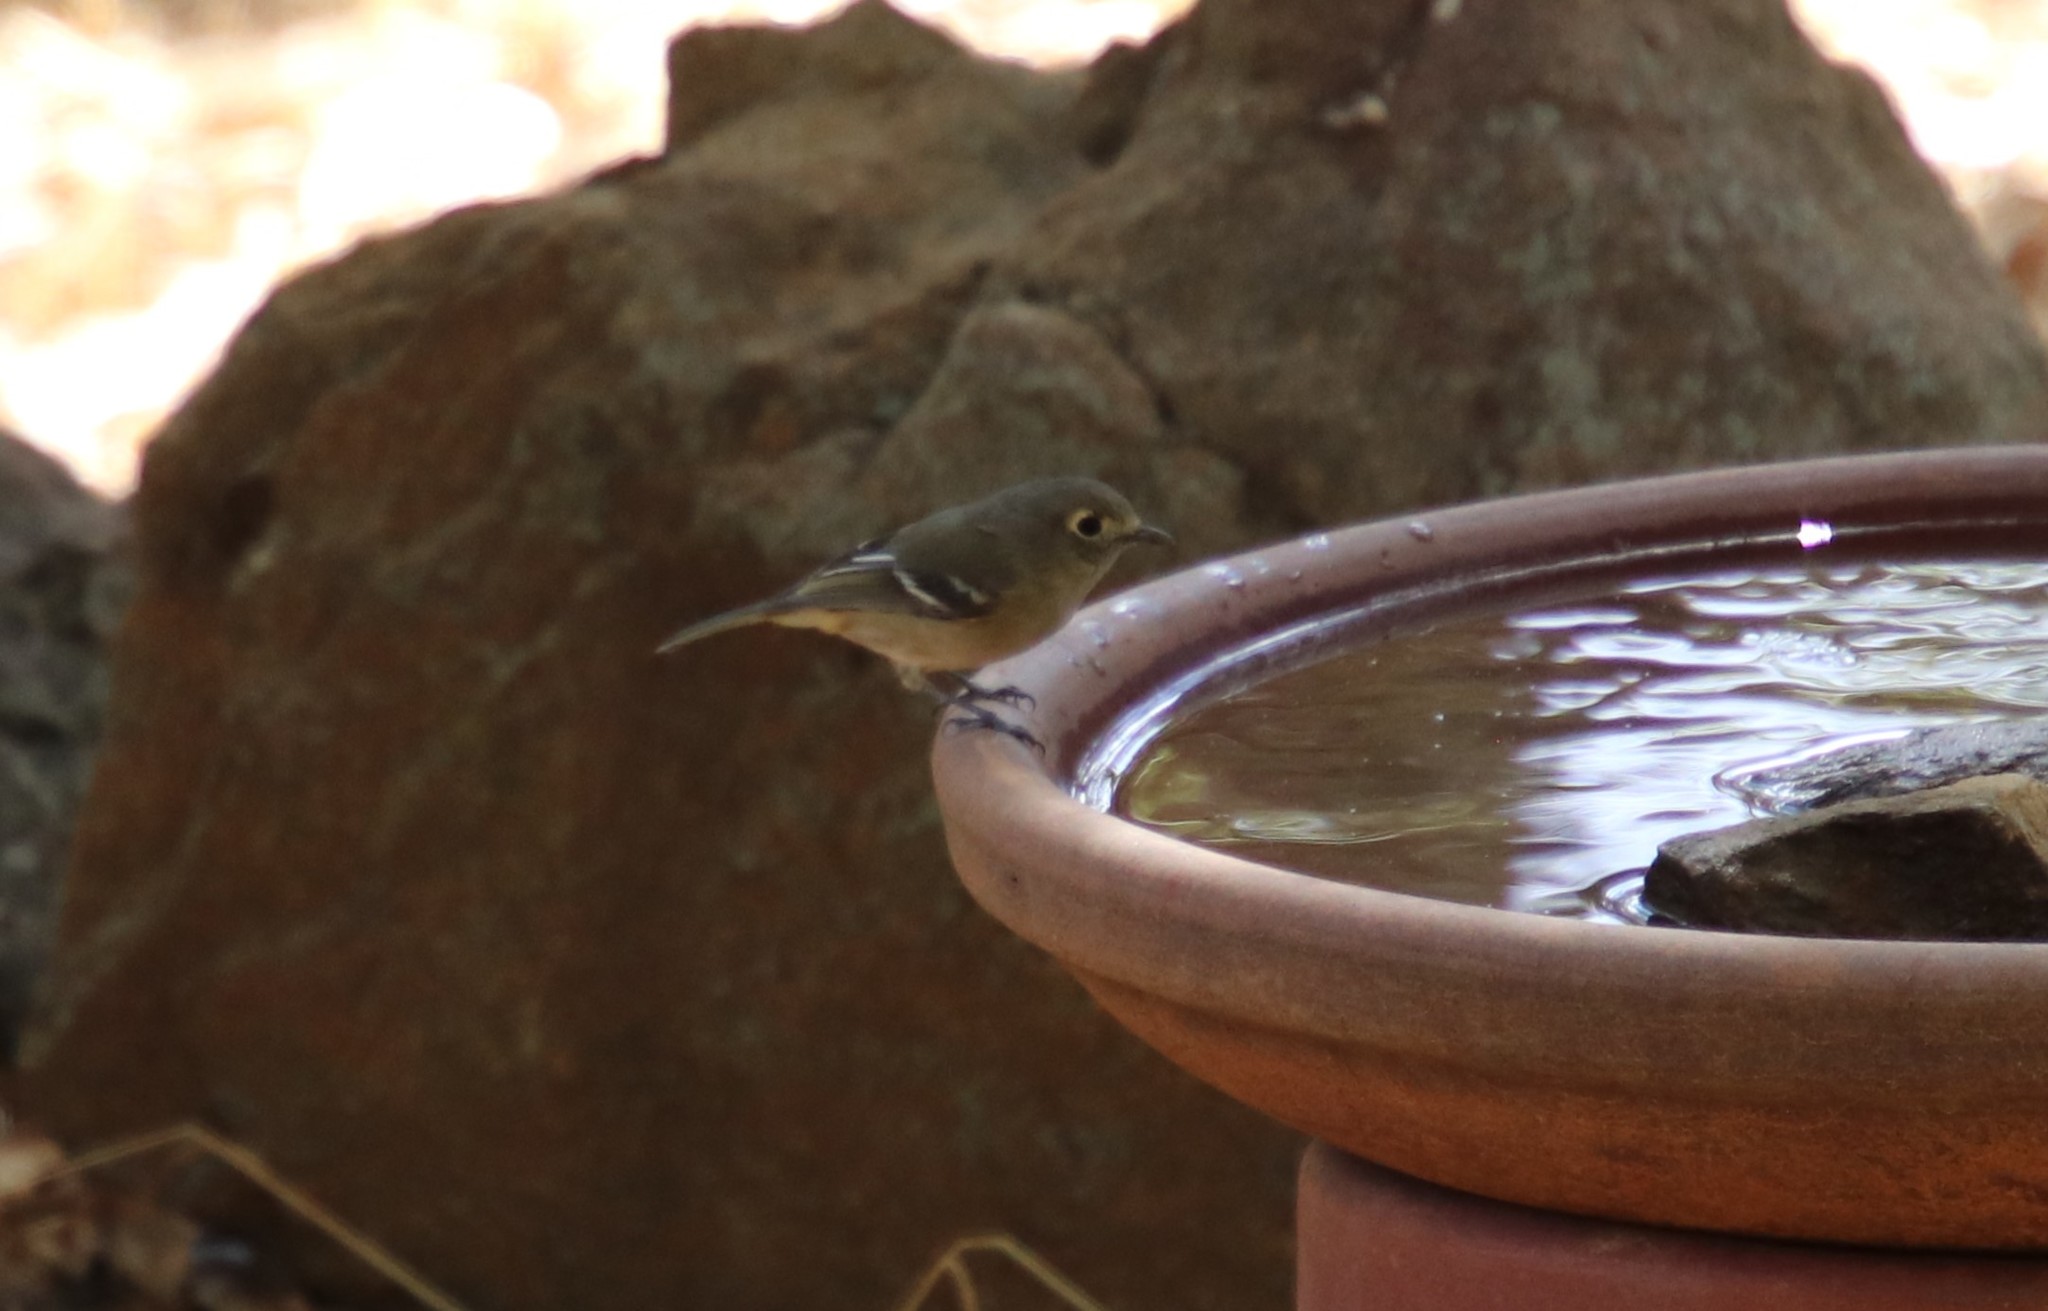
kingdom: Animalia
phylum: Chordata
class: Aves
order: Passeriformes
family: Vireonidae
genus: Vireo
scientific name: Vireo huttoni
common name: Hutton's vireo
